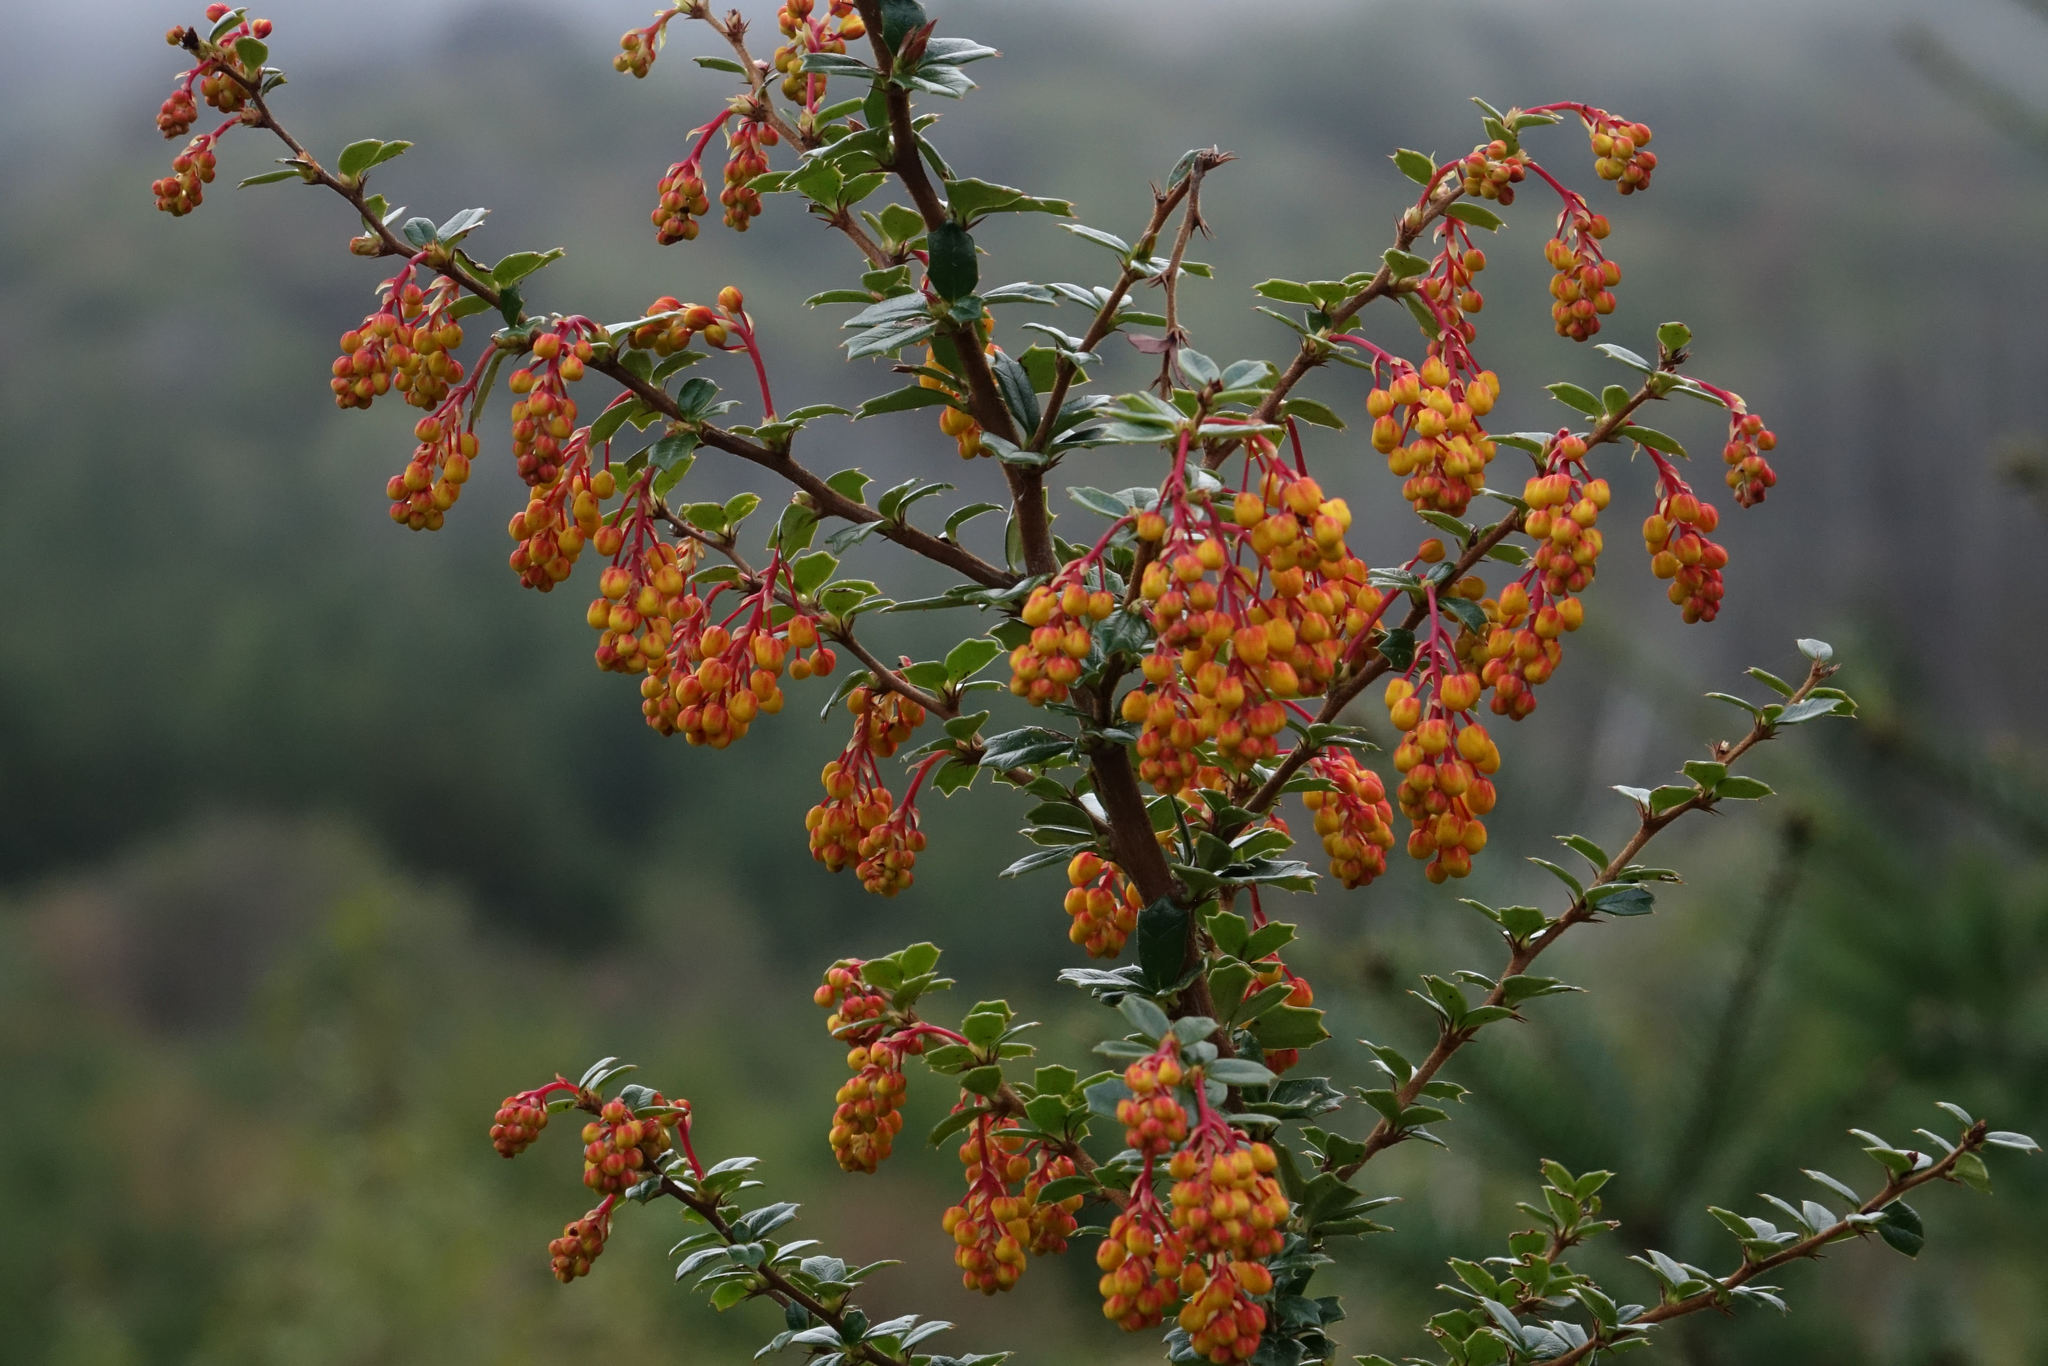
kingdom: Plantae
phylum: Tracheophyta
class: Magnoliopsida
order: Ranunculales
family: Berberidaceae
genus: Berberis
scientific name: Berberis darwinii
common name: Darwin's barberry
